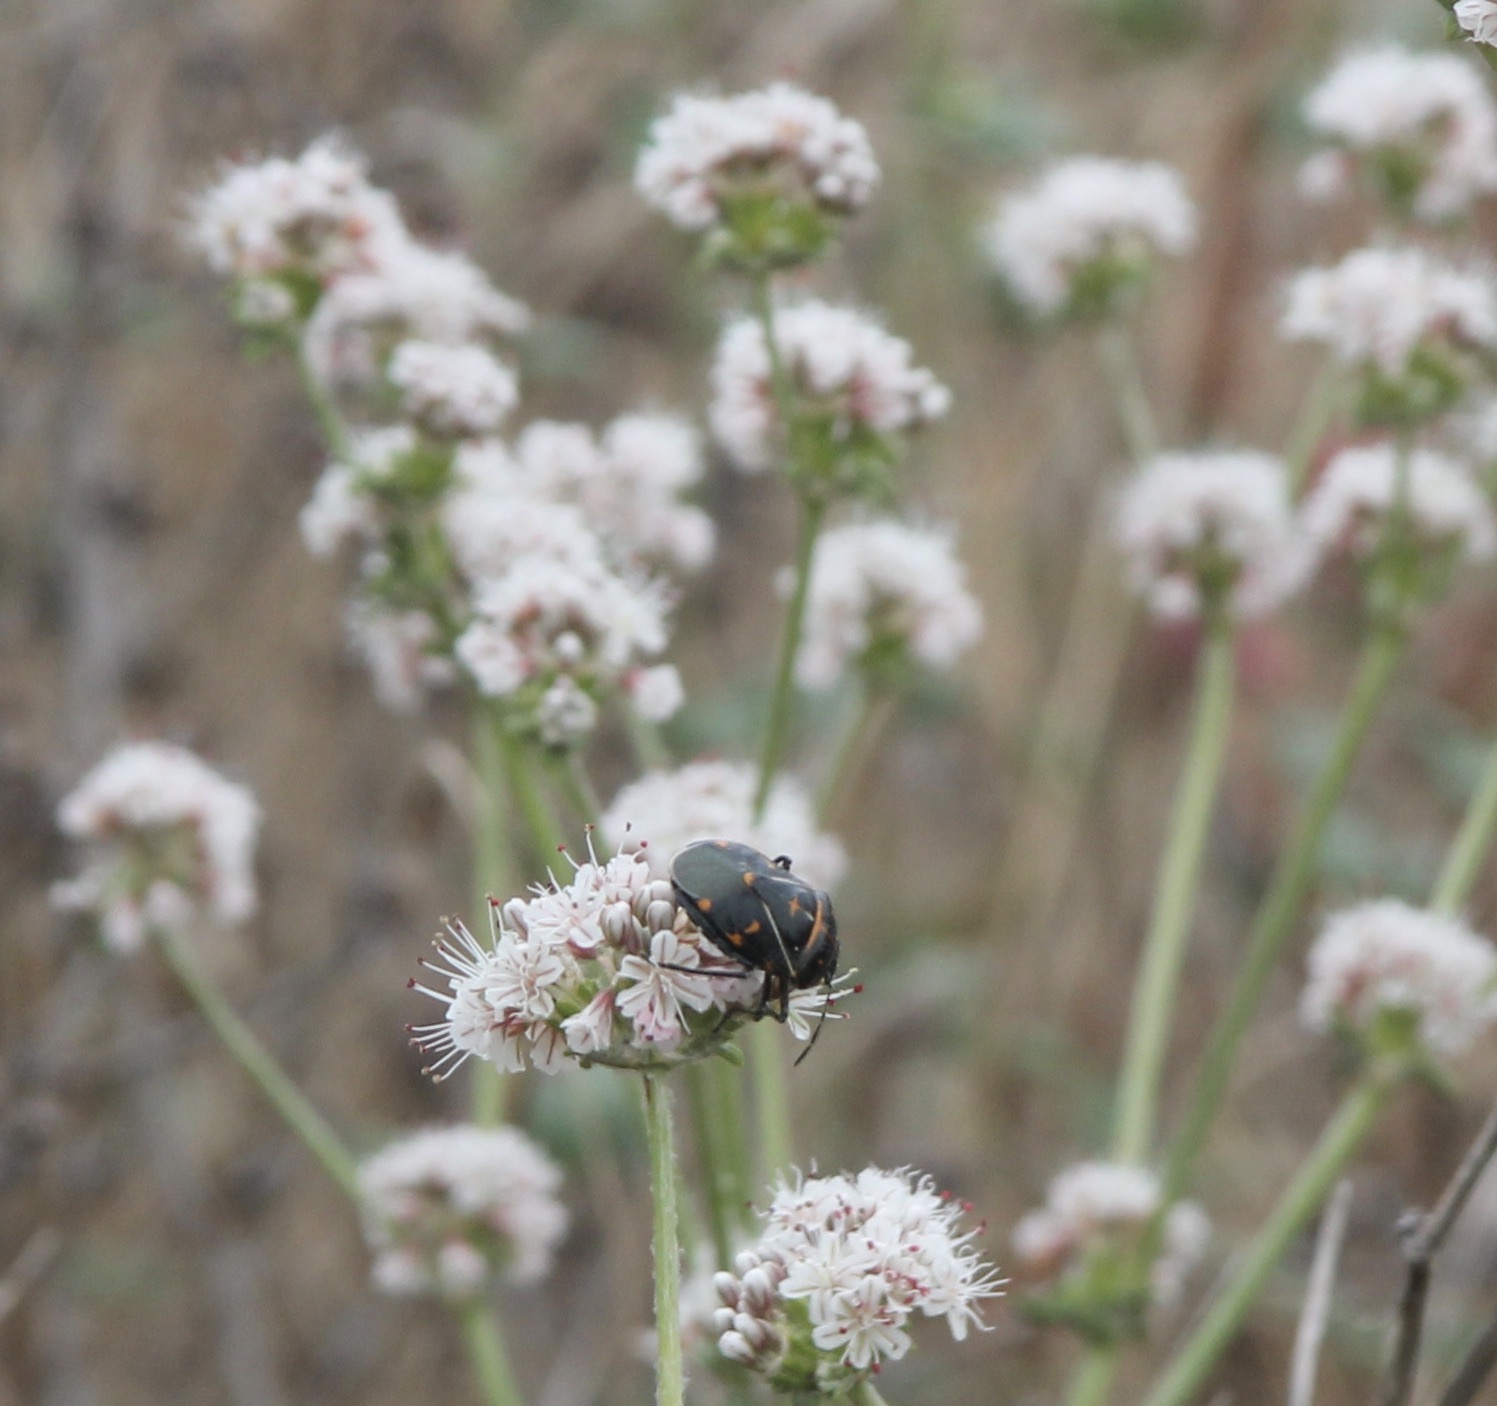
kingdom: Animalia
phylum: Arthropoda
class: Insecta
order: Hemiptera
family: Pentatomidae
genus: Murgantia
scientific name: Murgantia histrionica
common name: Harlequin bug
